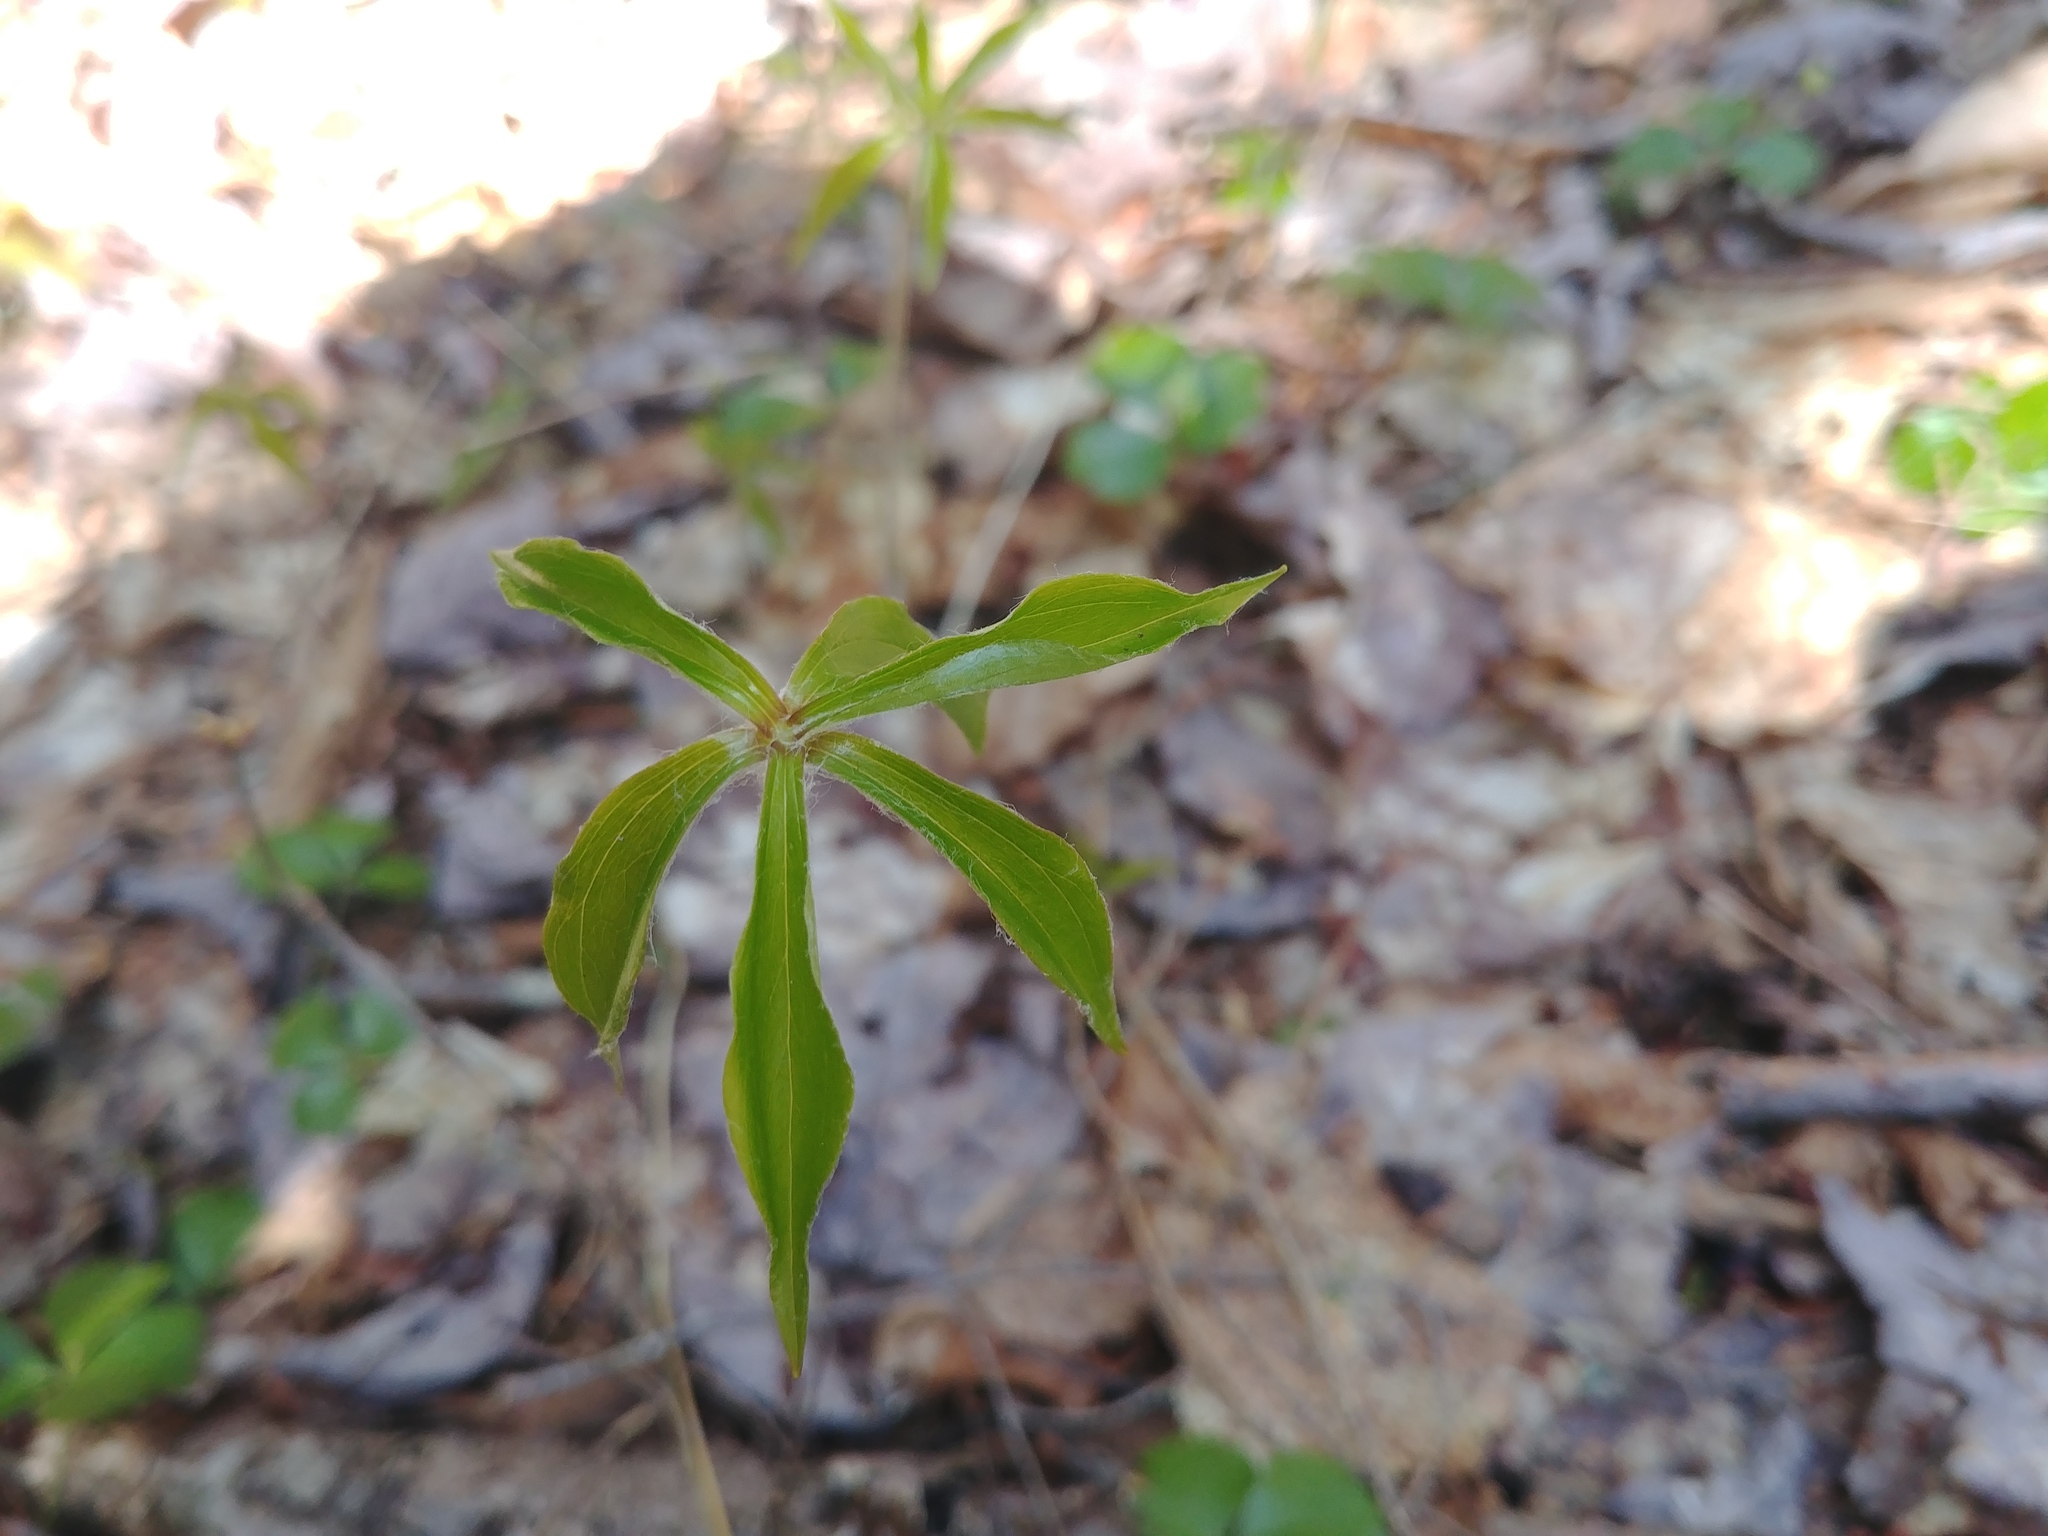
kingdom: Plantae
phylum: Tracheophyta
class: Liliopsida
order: Liliales
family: Liliaceae
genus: Medeola
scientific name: Medeola virginiana
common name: Indian cucumber-root
